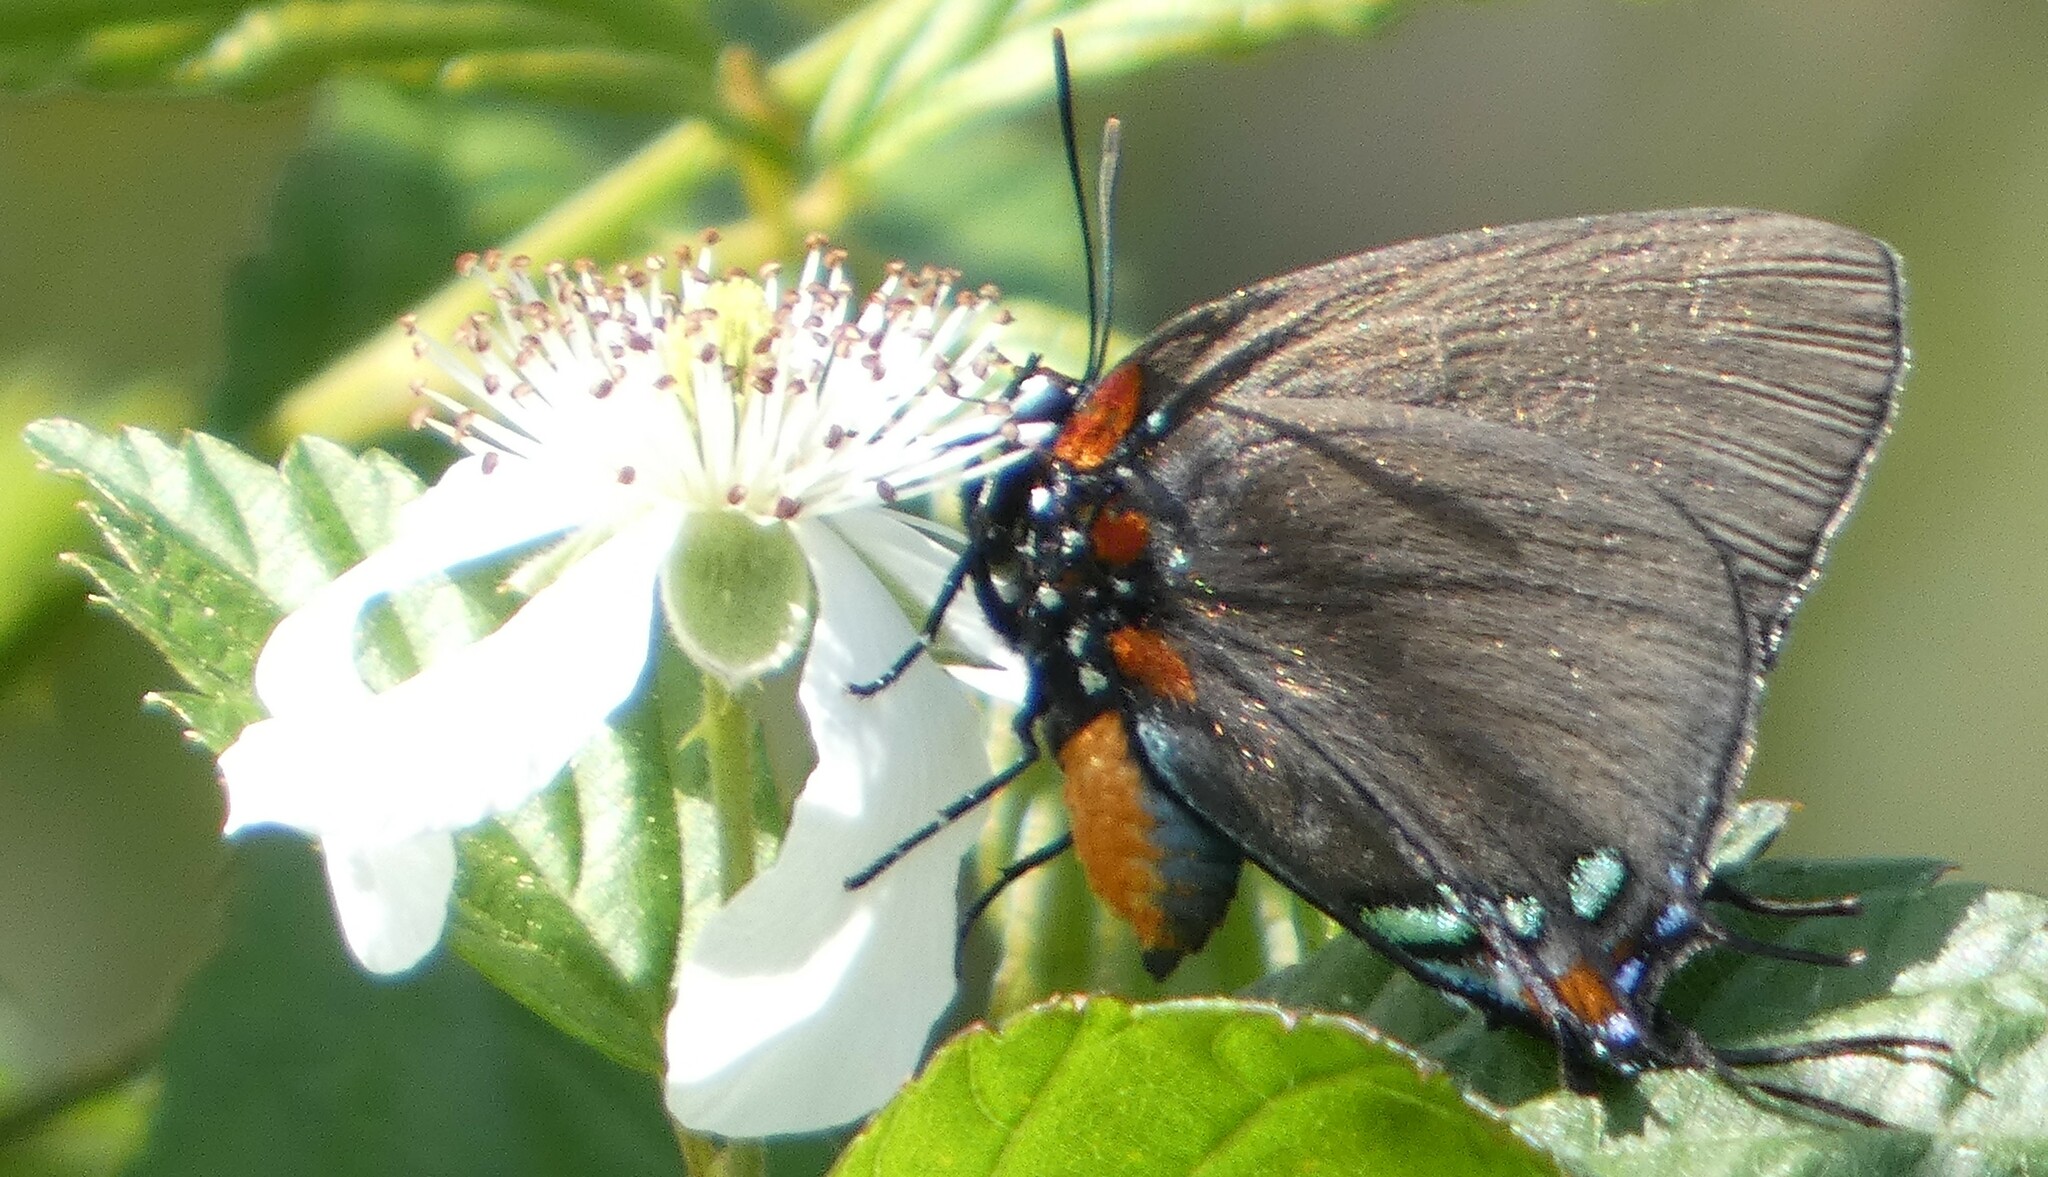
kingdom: Animalia
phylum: Arthropoda
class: Insecta
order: Lepidoptera
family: Lycaenidae
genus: Atlides
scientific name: Atlides halesus
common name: Great purple hairstreak
